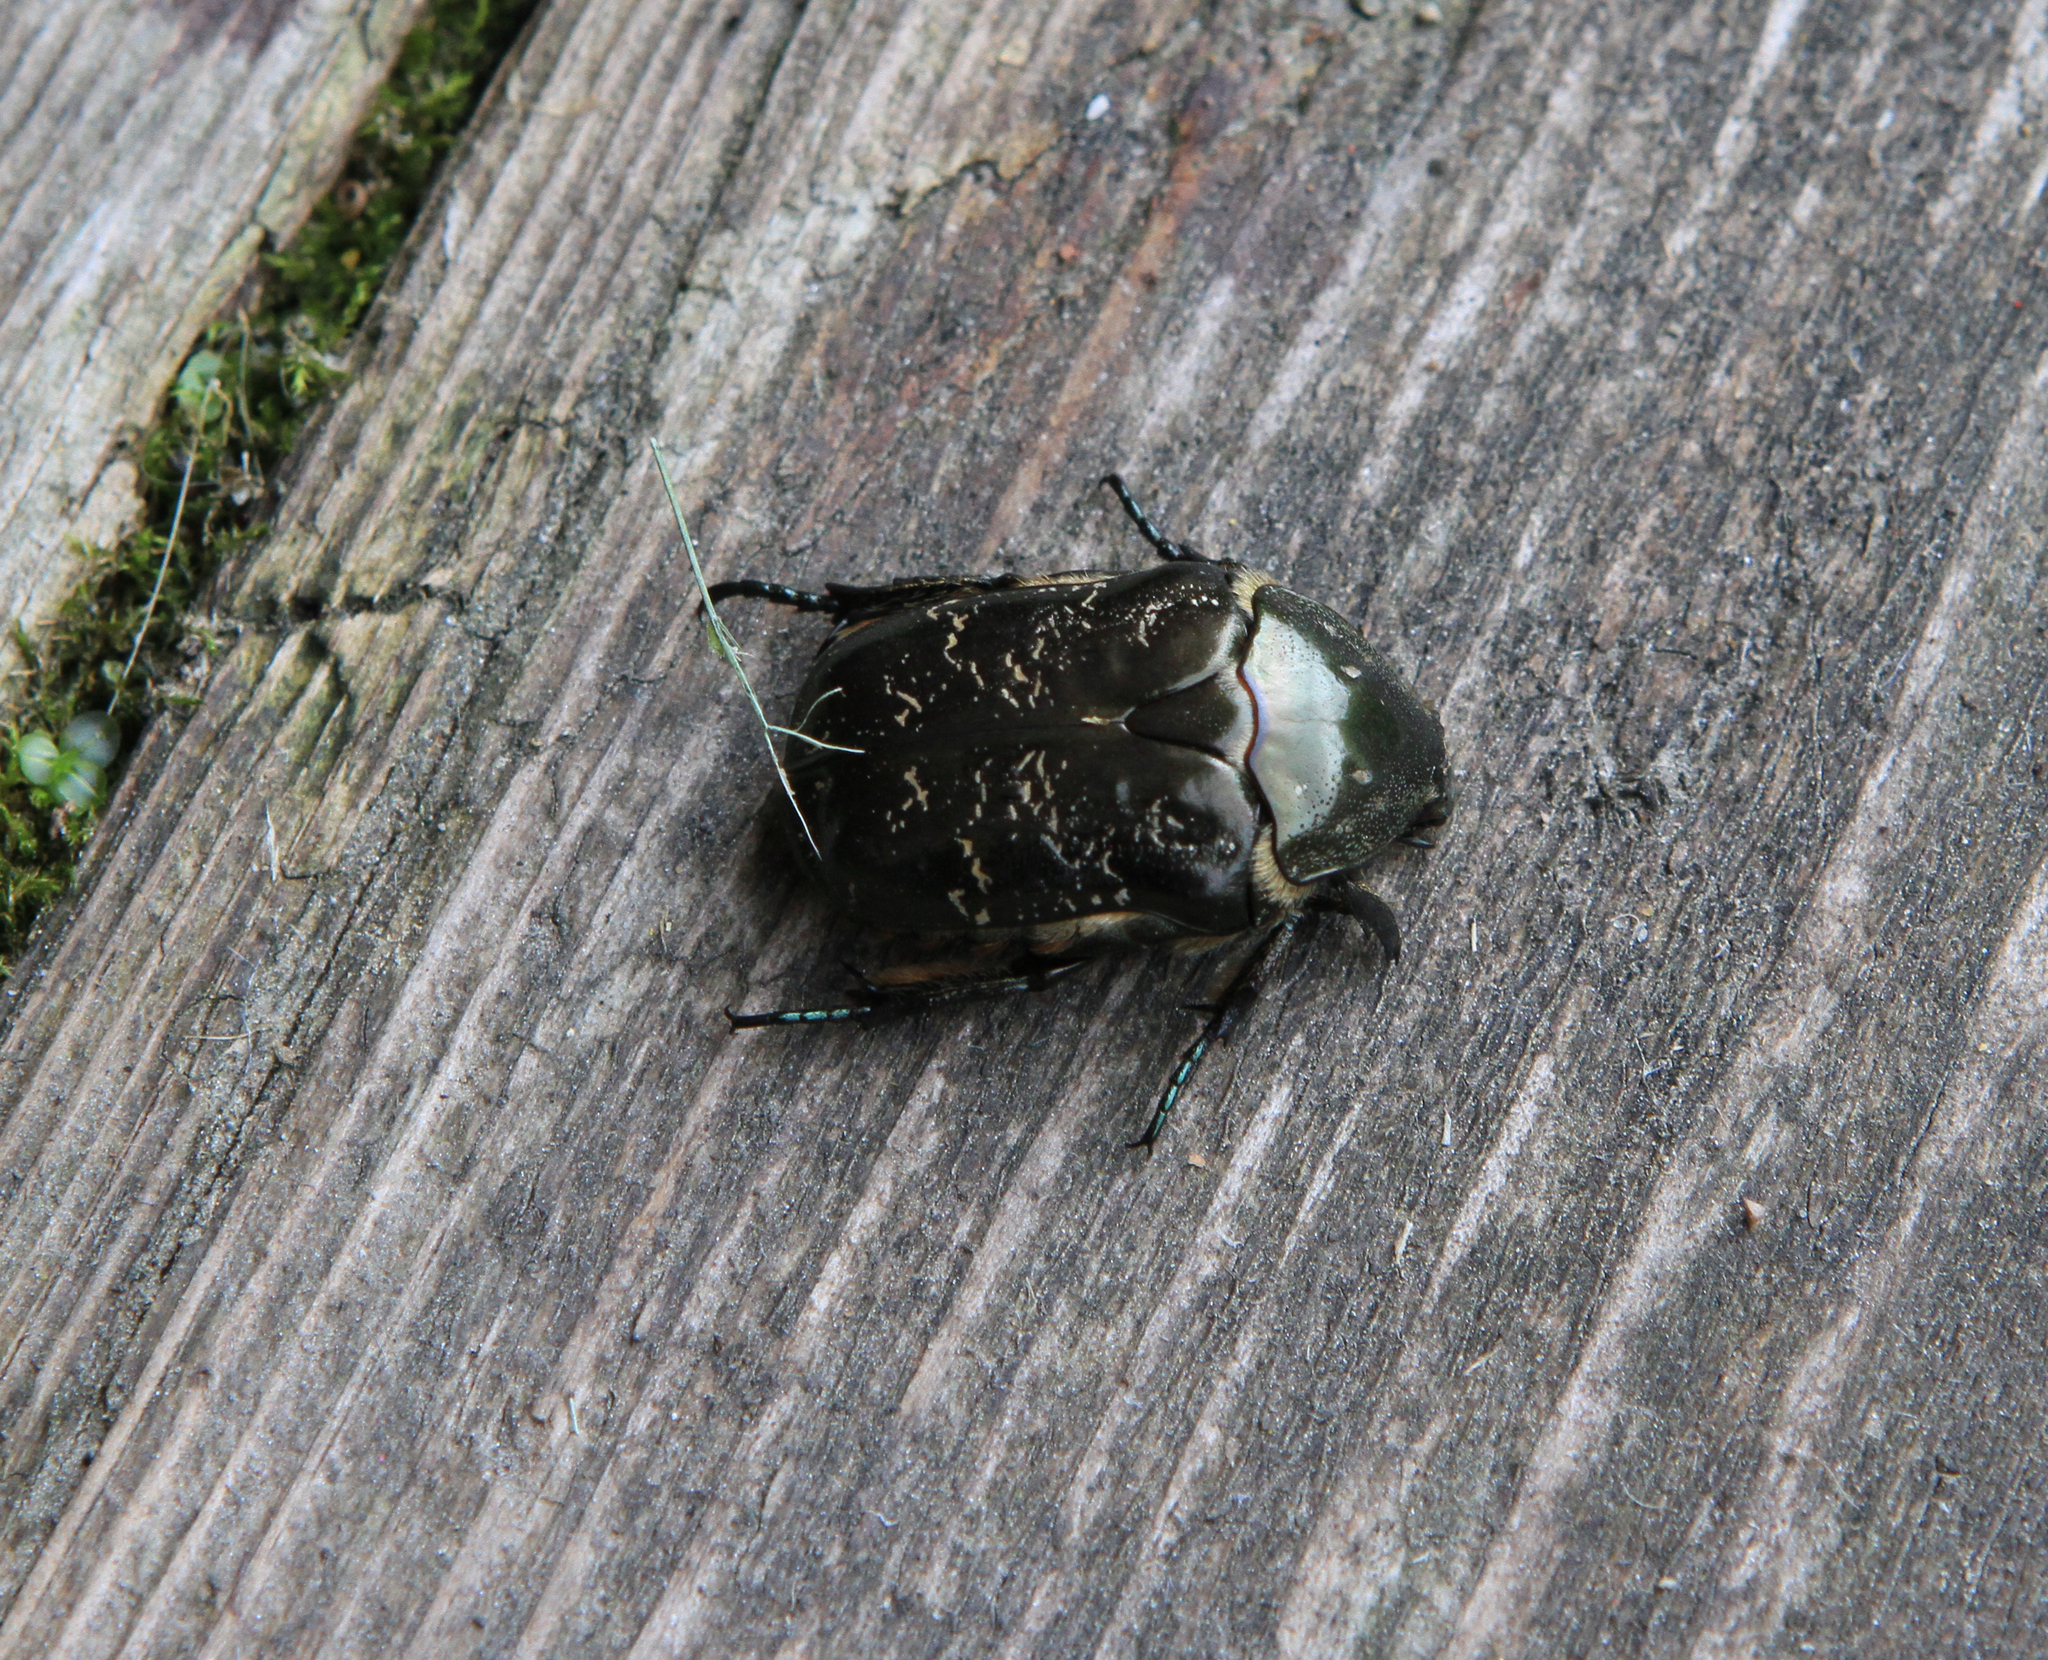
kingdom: Animalia
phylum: Arthropoda
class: Insecta
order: Coleoptera
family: Scarabaeidae
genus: Protaetia
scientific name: Protaetia marmorata
